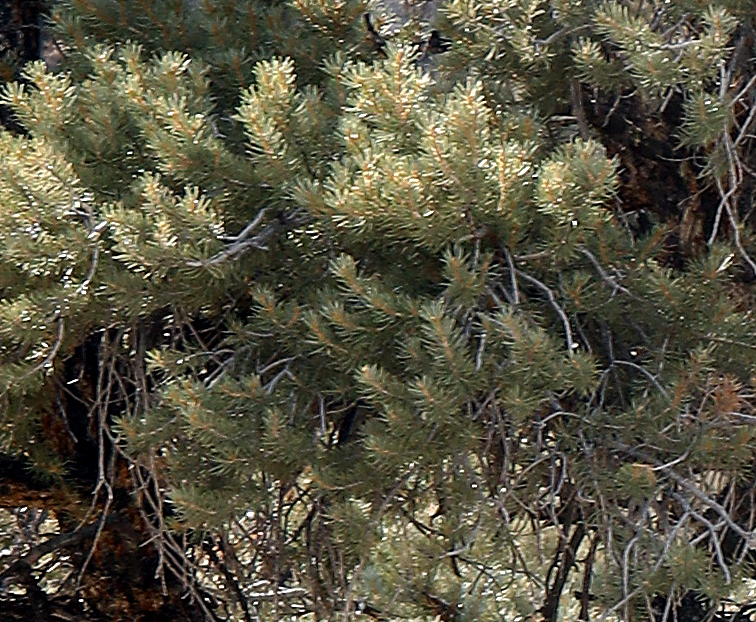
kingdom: Plantae
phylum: Tracheophyta
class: Pinopsida
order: Pinales
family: Pinaceae
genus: Pinus
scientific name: Pinus monophylla
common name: One-leaved nut pine
